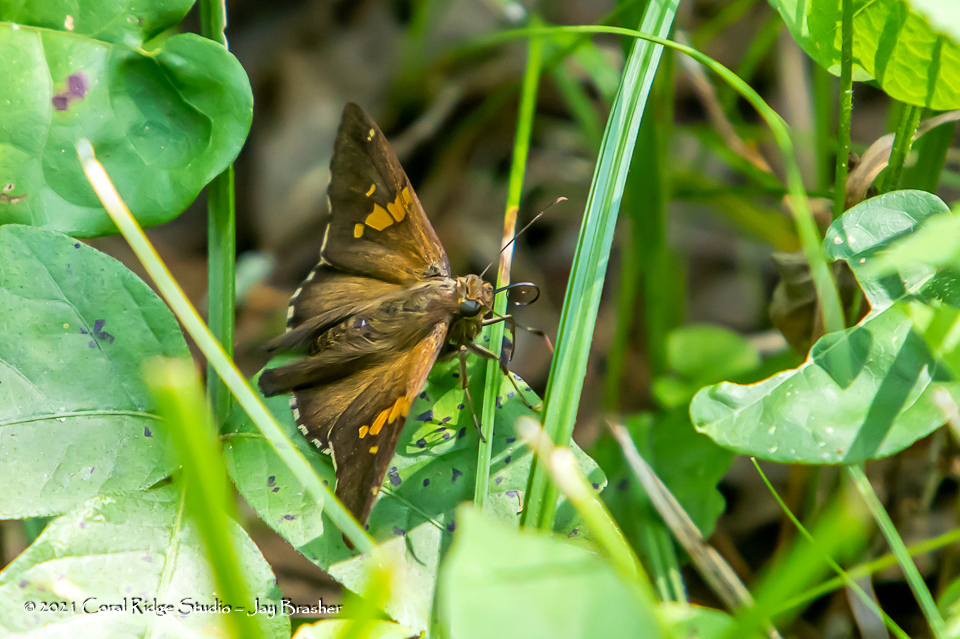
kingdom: Animalia
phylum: Arthropoda
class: Insecta
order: Lepidoptera
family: Hesperiidae
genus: Epargyreus
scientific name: Epargyreus clarus
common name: Silver-spotted skipper
